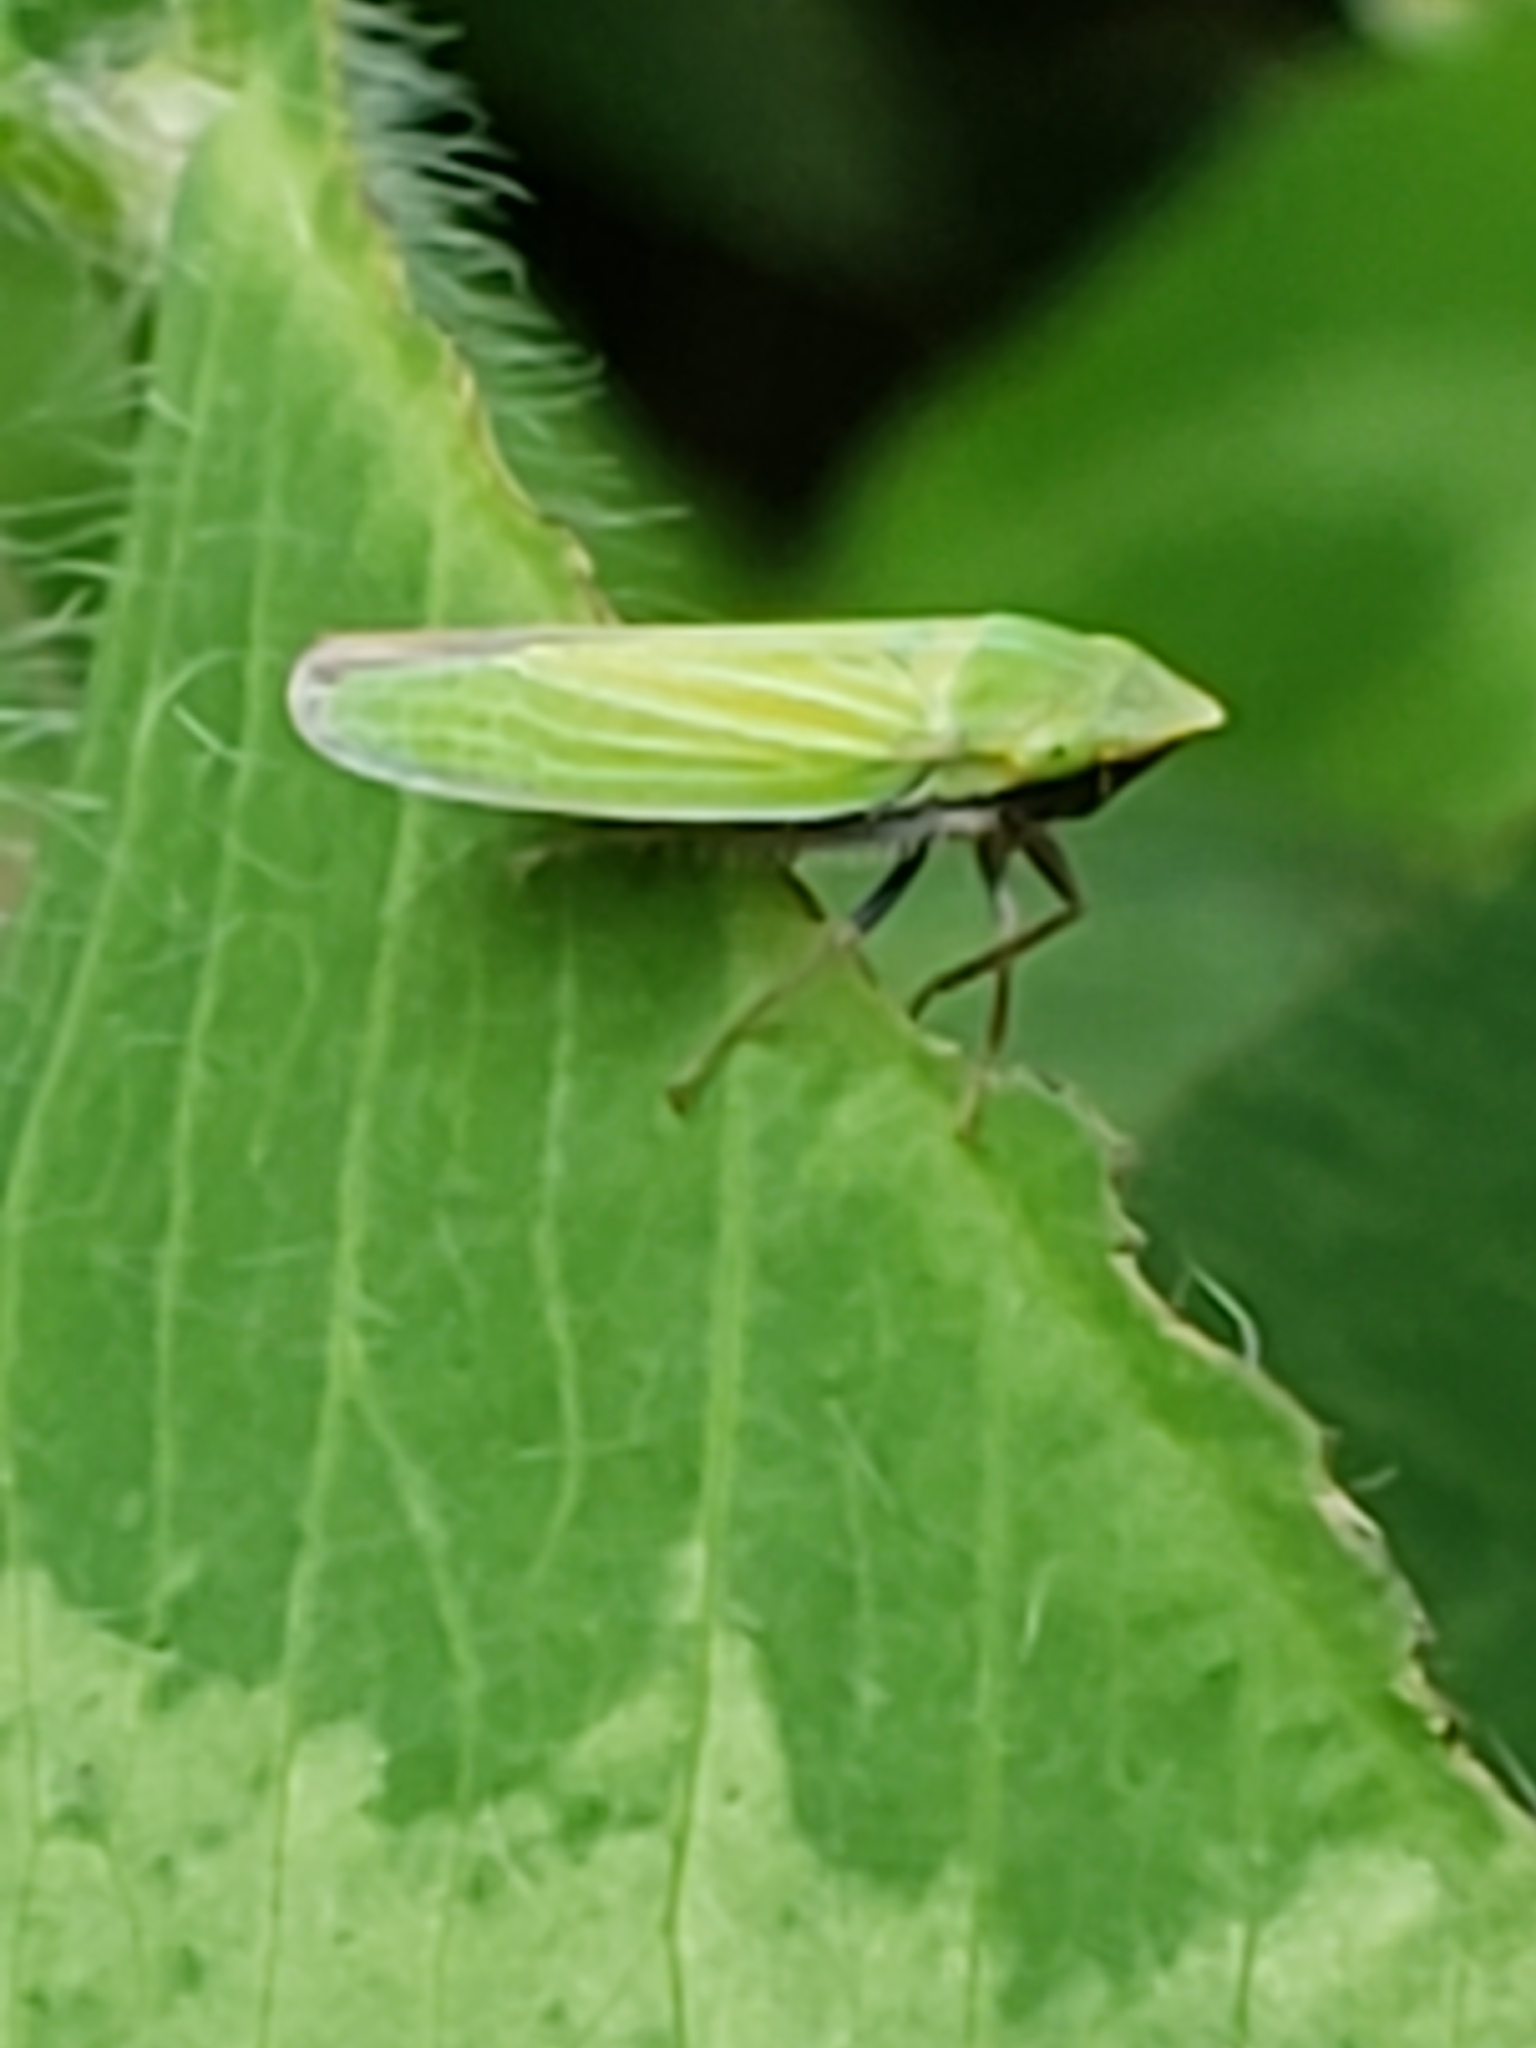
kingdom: Animalia
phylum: Arthropoda
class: Insecta
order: Hemiptera
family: Cicadellidae
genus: Draeculacephala
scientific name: Draeculacephala robinsoni
